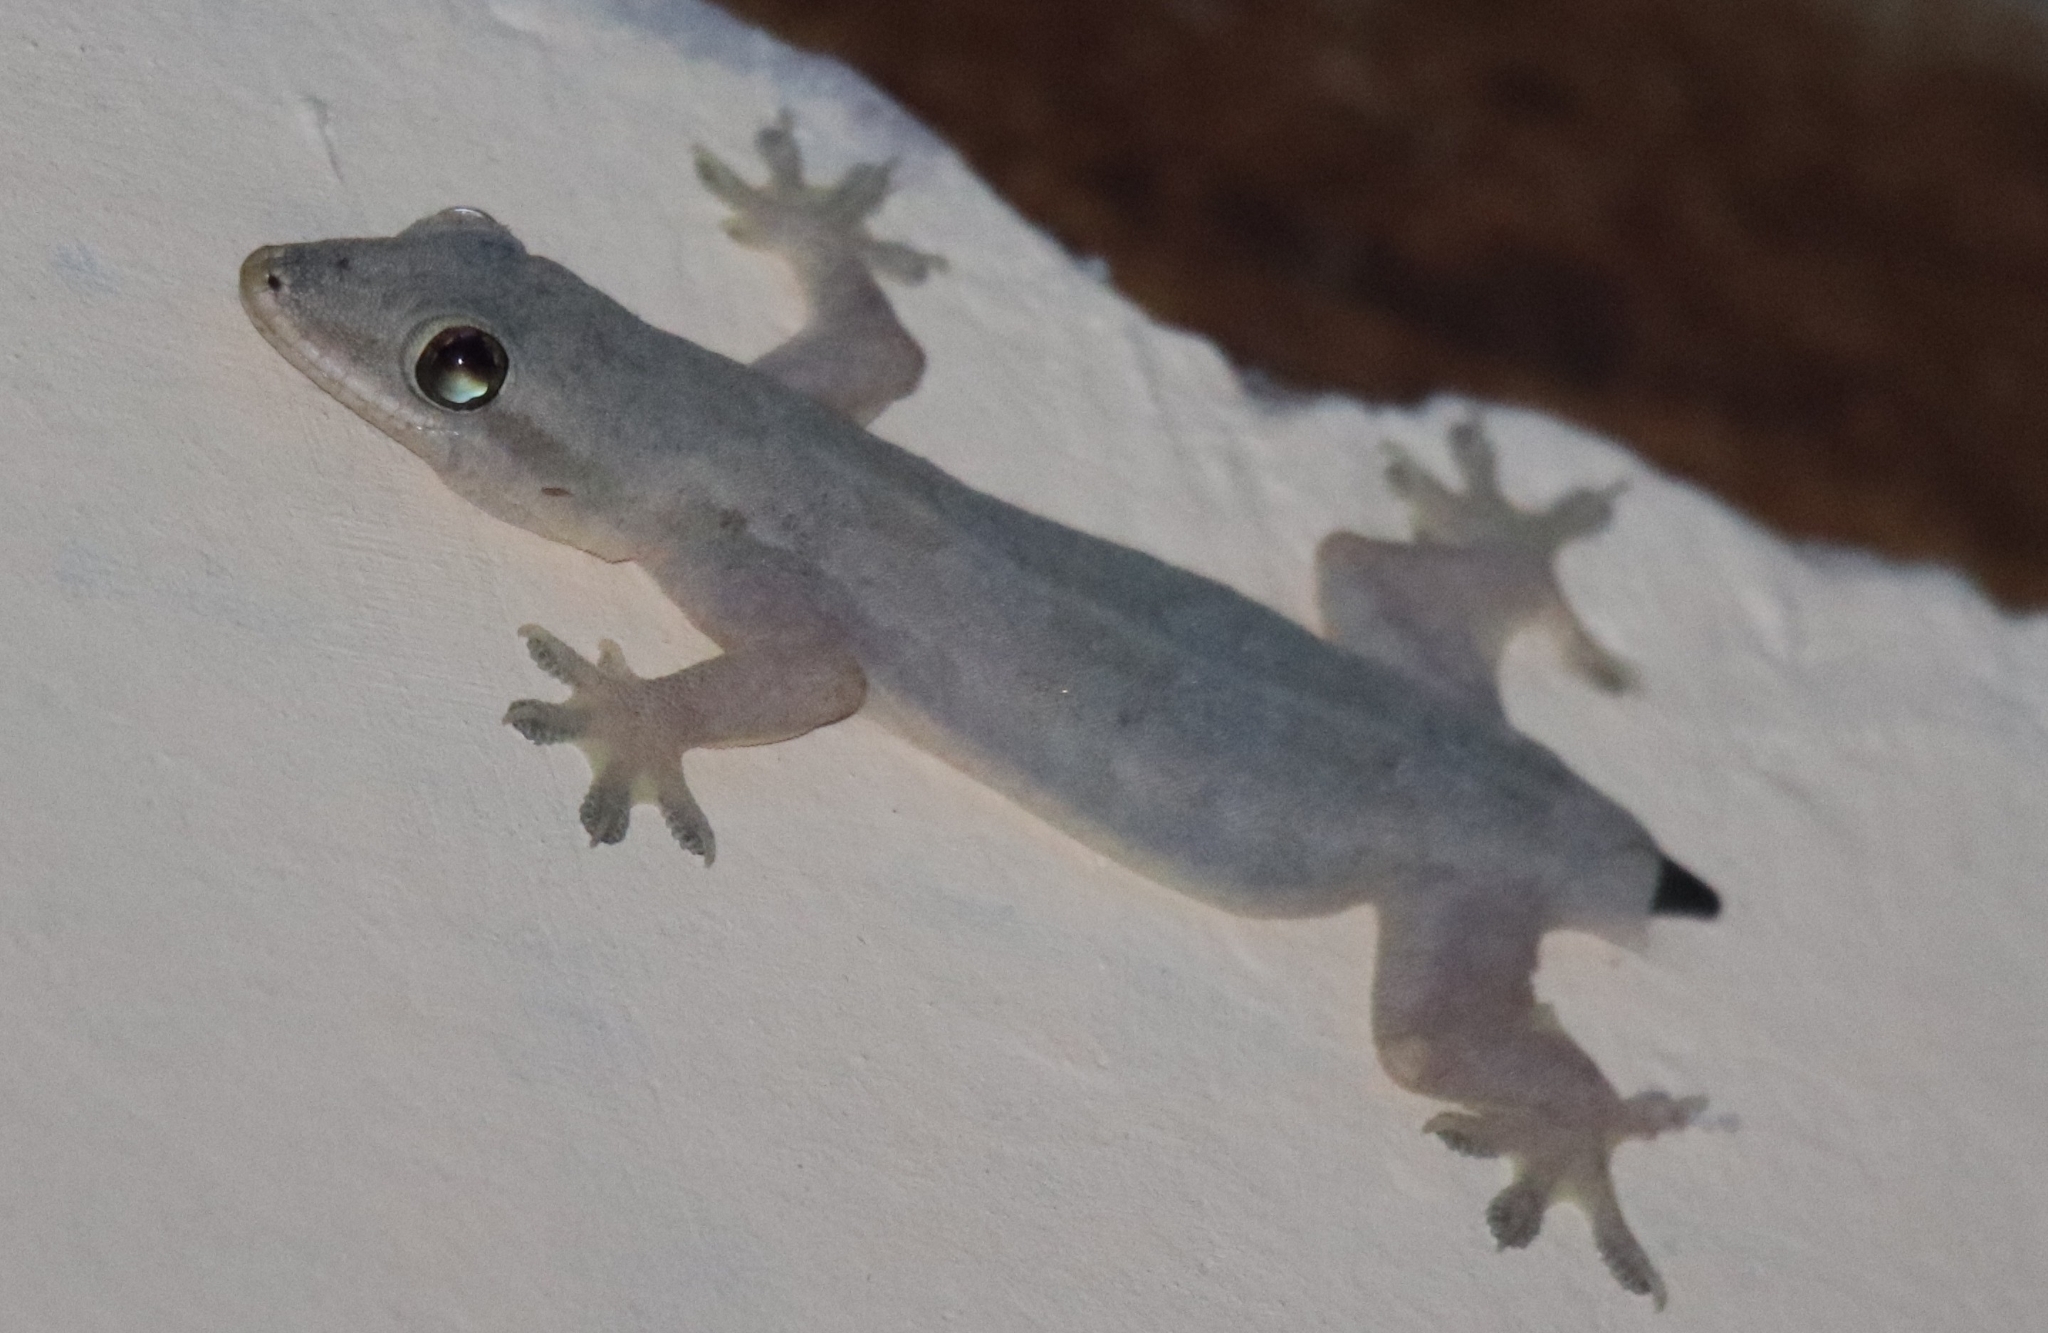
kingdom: Animalia
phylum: Chordata
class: Squamata
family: Gekkonidae
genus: Hemidactylus
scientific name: Hemidactylus platyurus
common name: Flat-tailed house gecko
